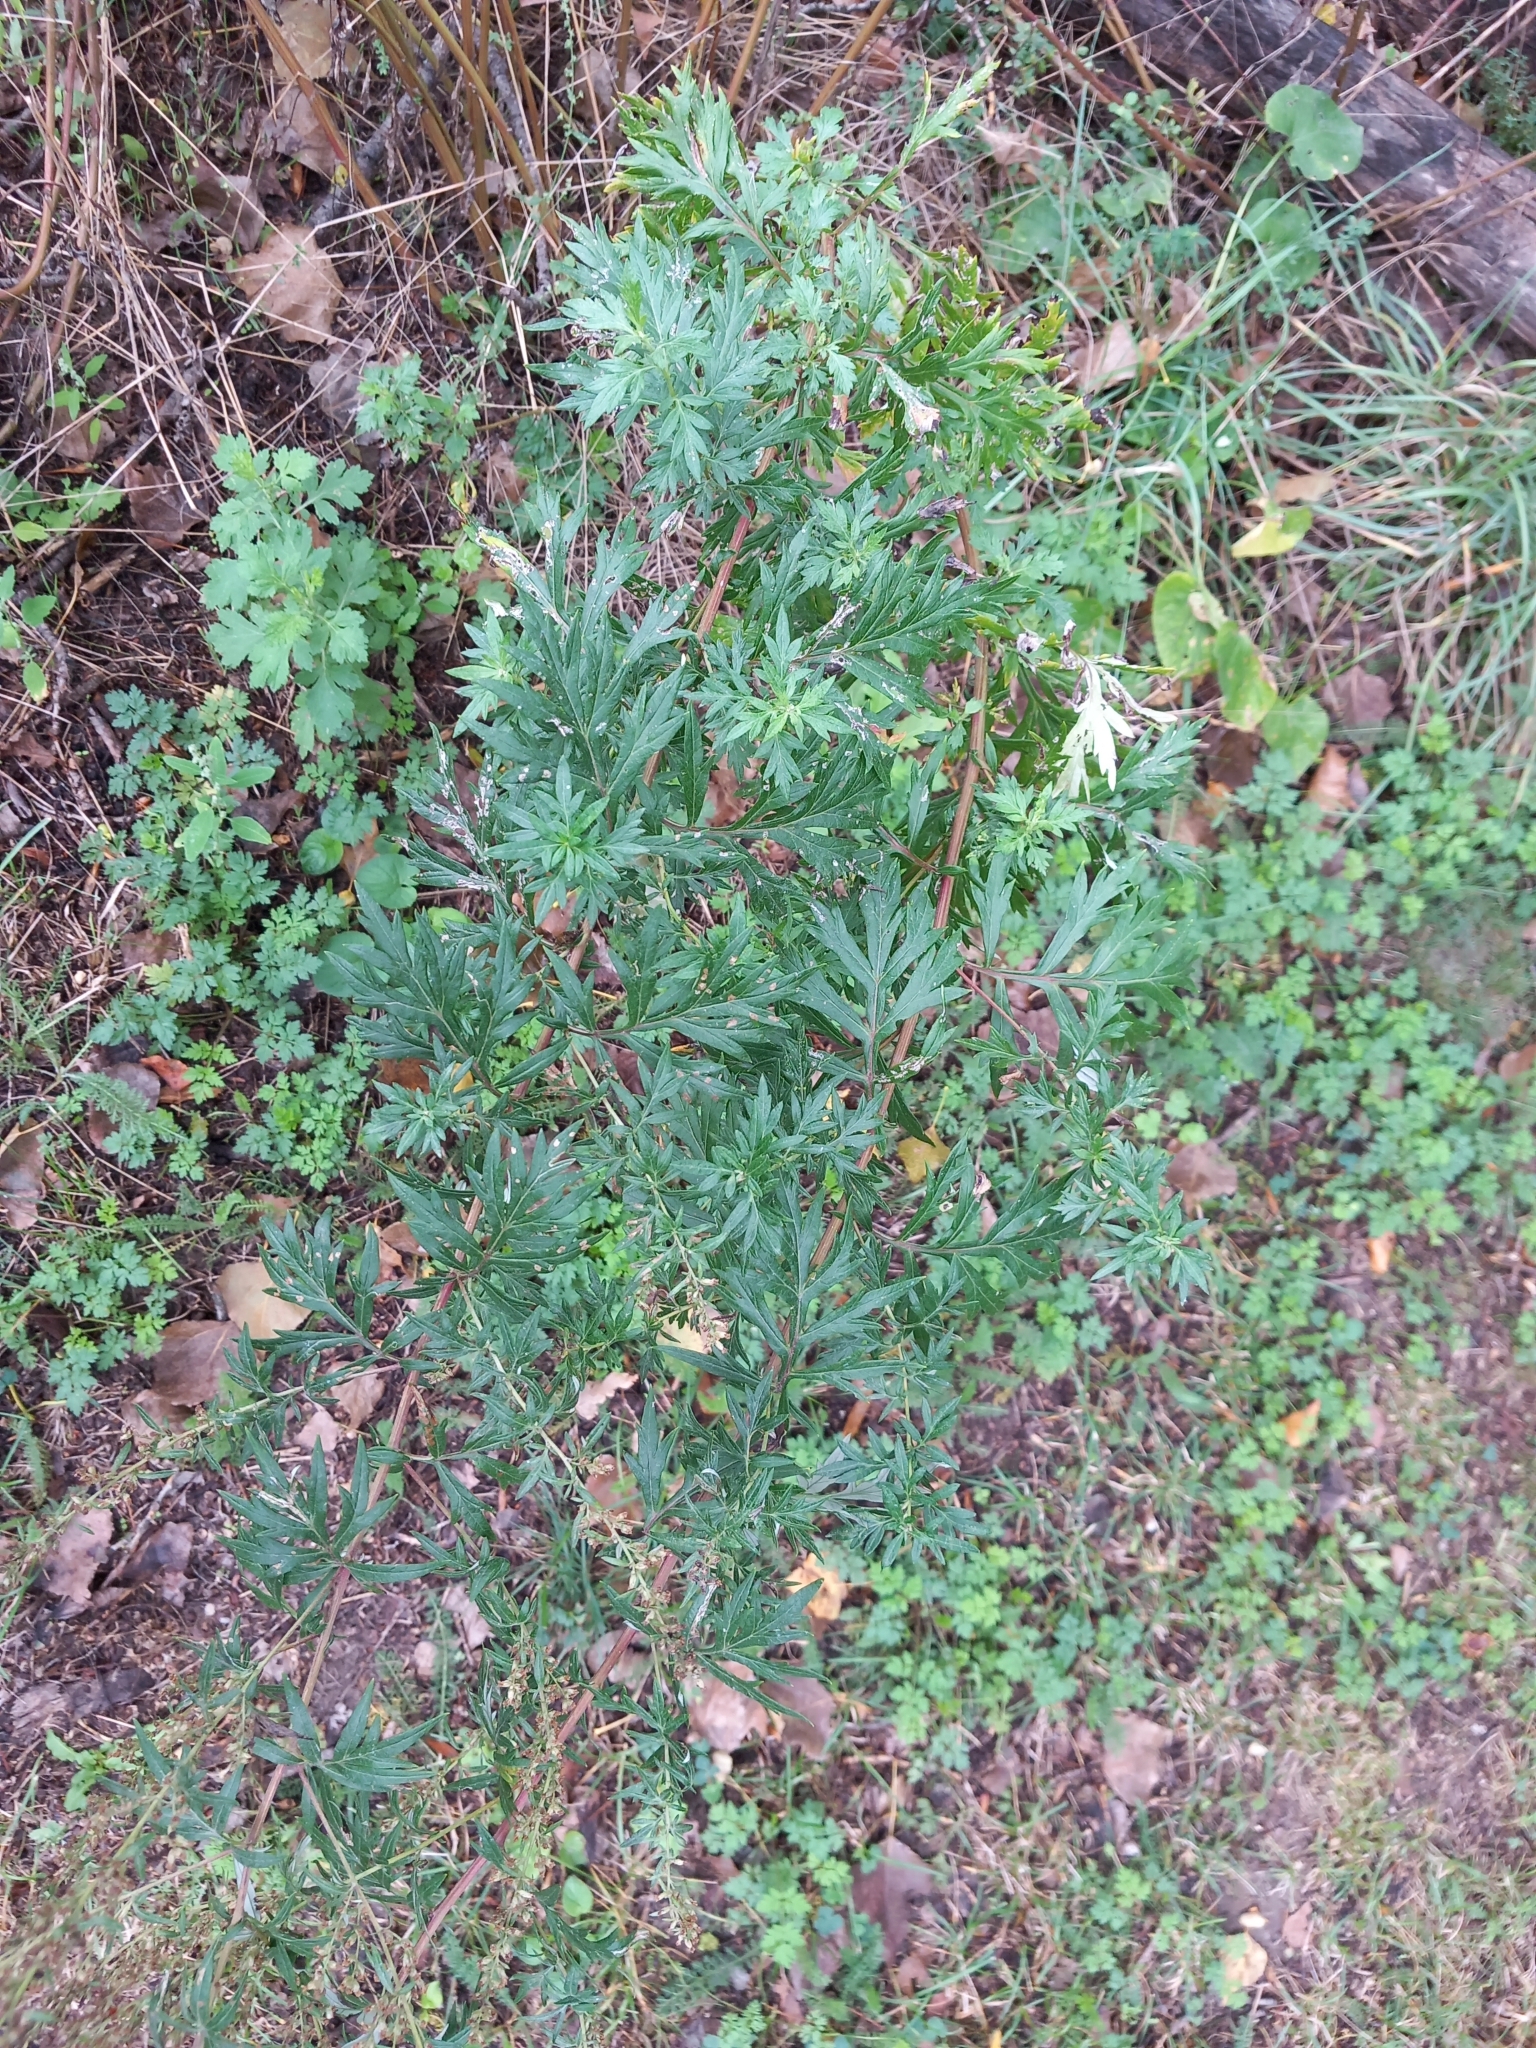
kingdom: Plantae
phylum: Tracheophyta
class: Magnoliopsida
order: Asterales
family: Asteraceae
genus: Artemisia
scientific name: Artemisia vulgaris
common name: Mugwort
